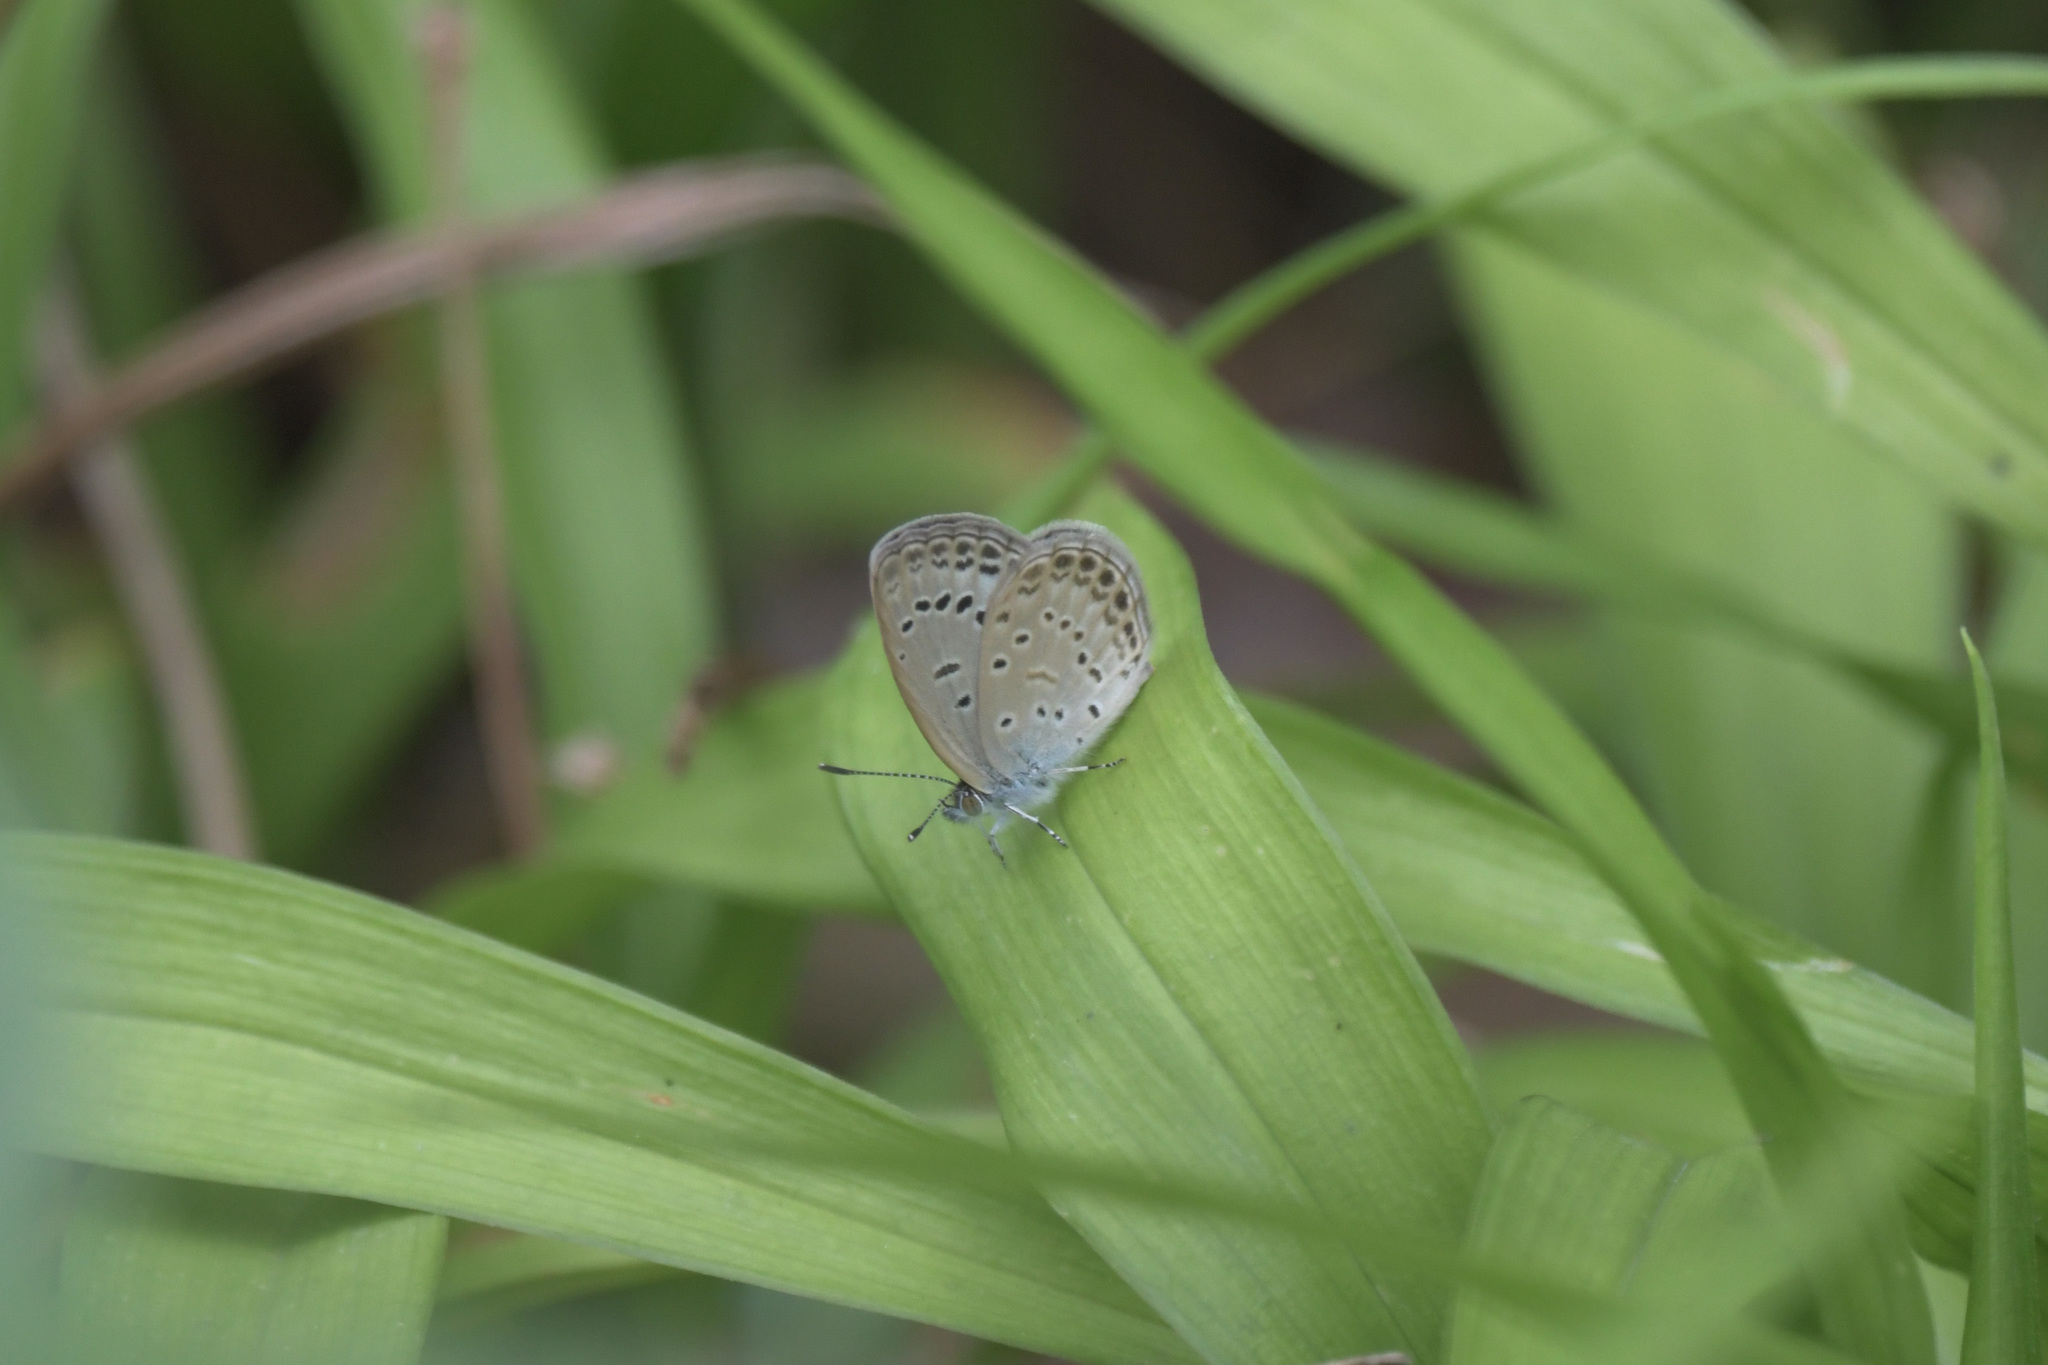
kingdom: Animalia
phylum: Arthropoda
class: Insecta
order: Lepidoptera
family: Lycaenidae
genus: Pseudozizeeria
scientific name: Pseudozizeeria maha
